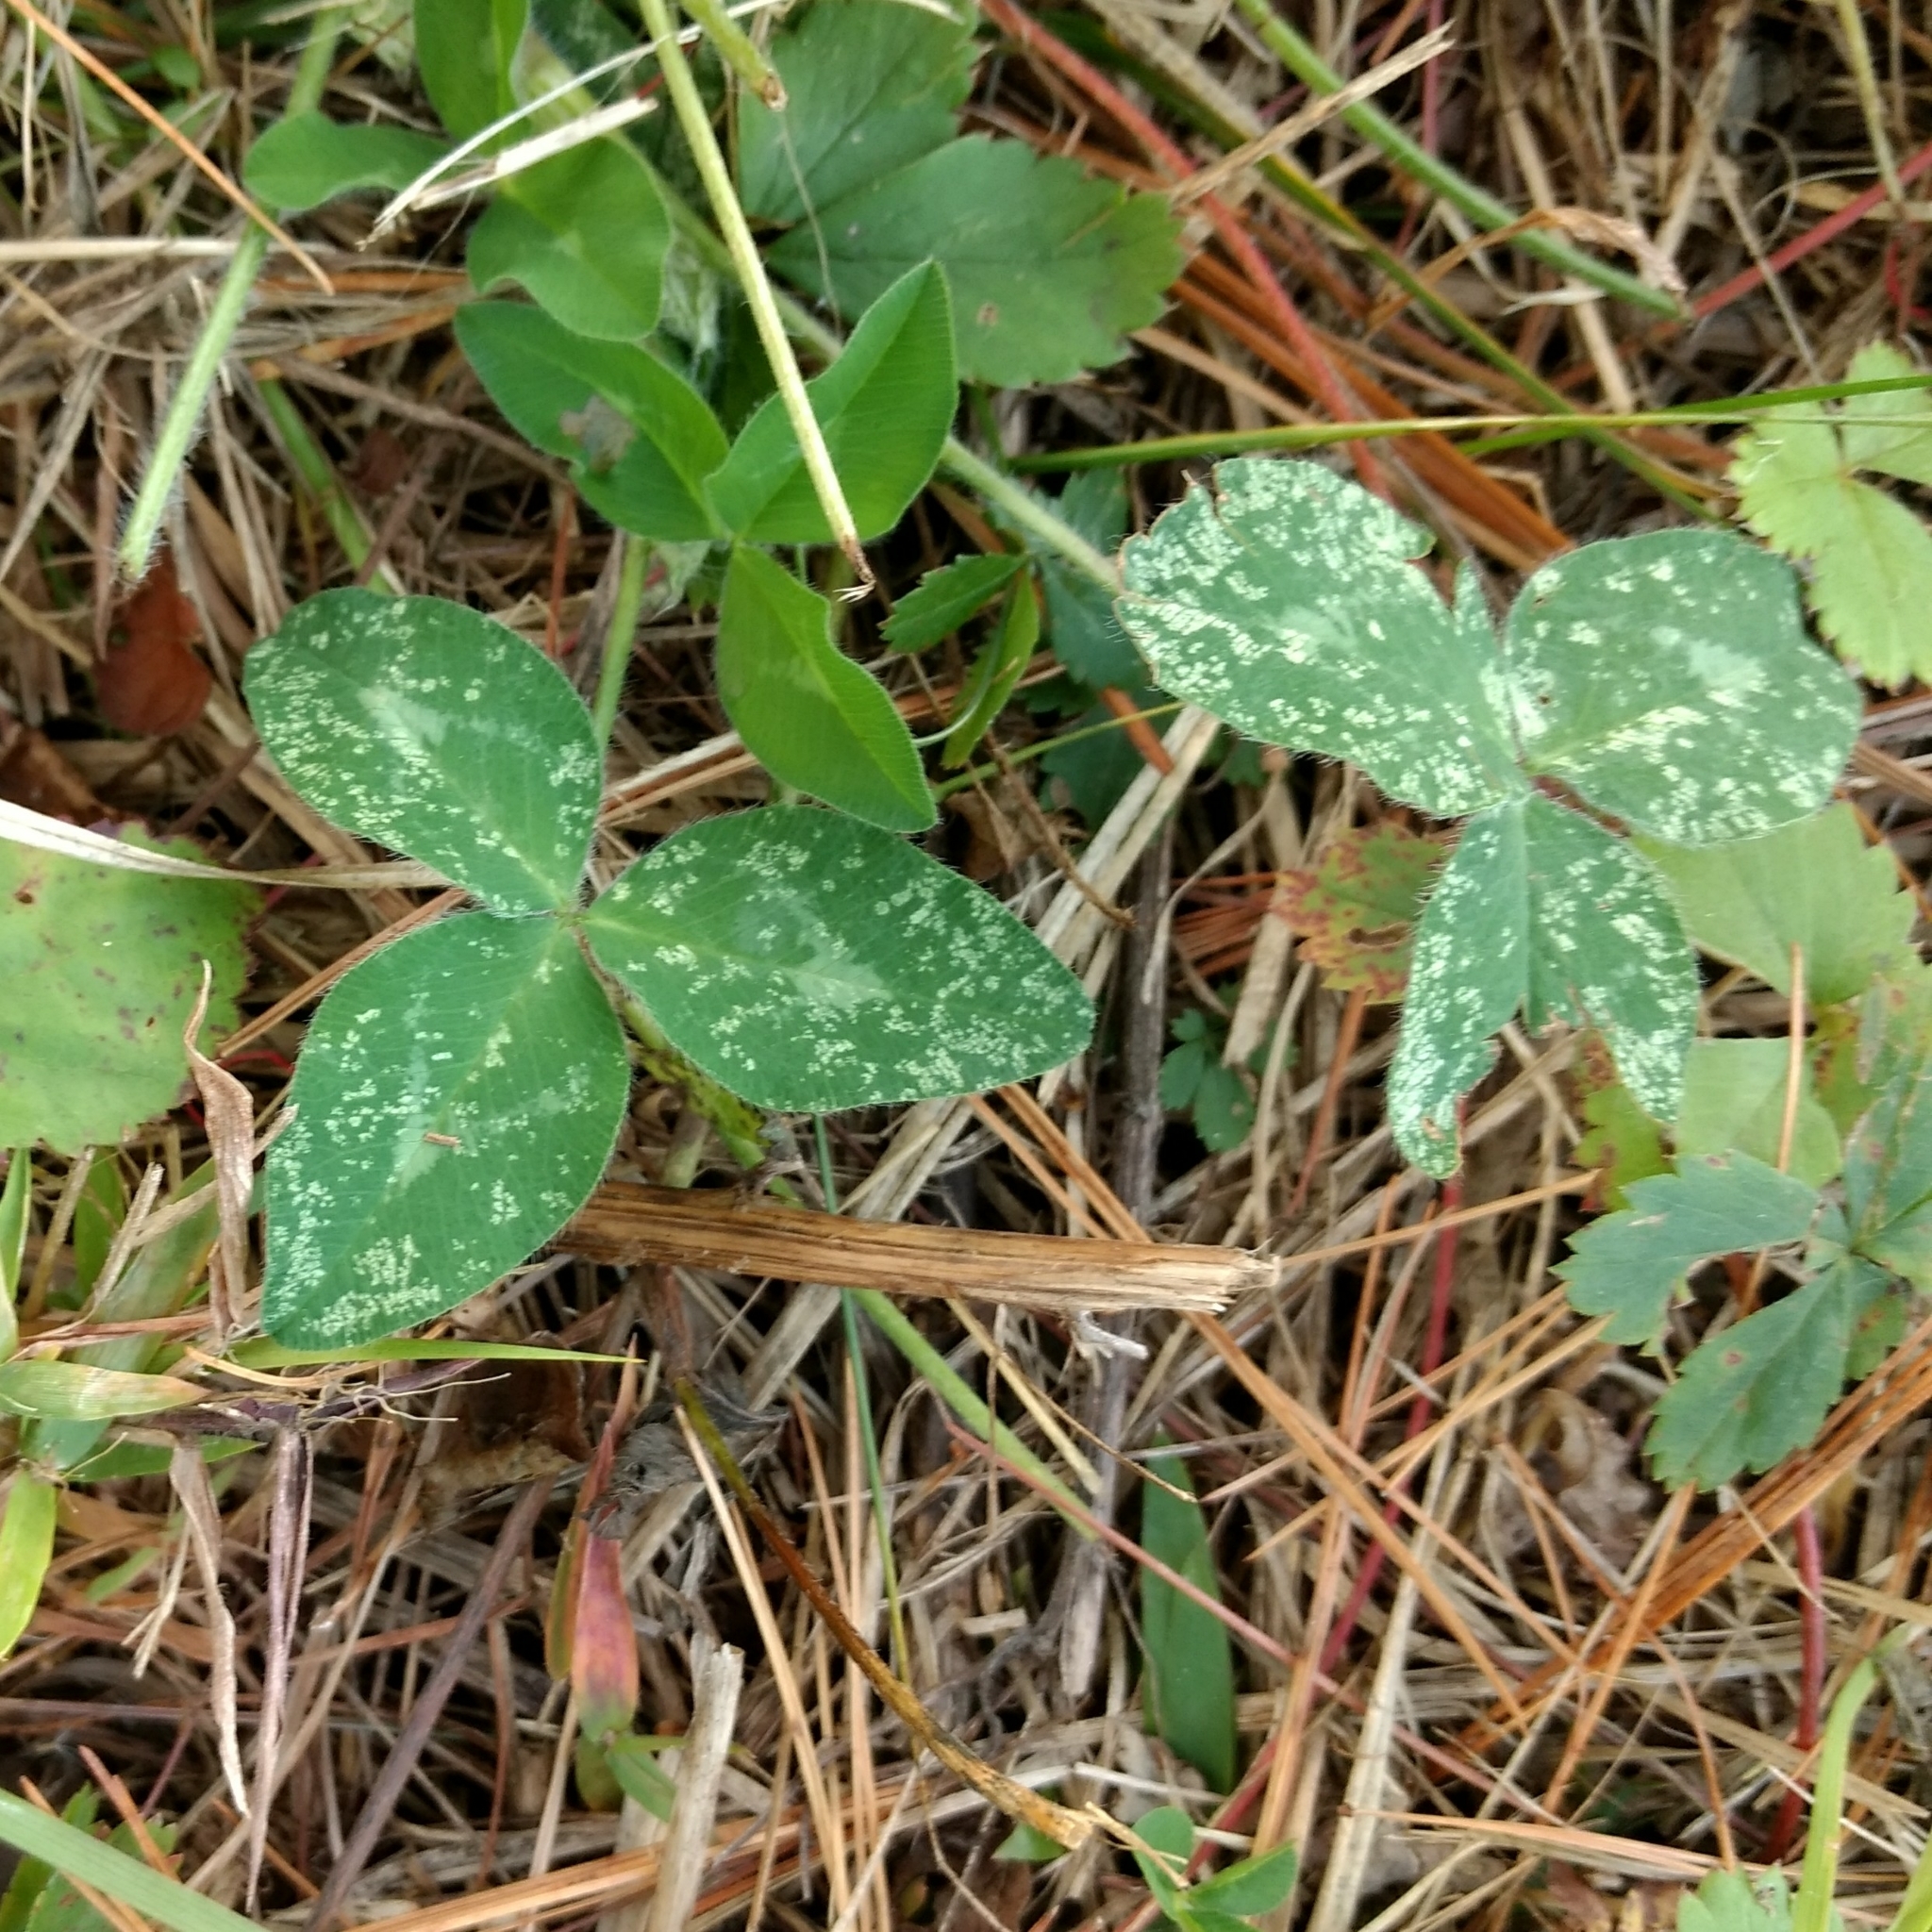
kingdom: Plantae
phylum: Tracheophyta
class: Magnoliopsida
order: Fabales
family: Fabaceae
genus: Trifolium
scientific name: Trifolium pratense
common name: Red clover
